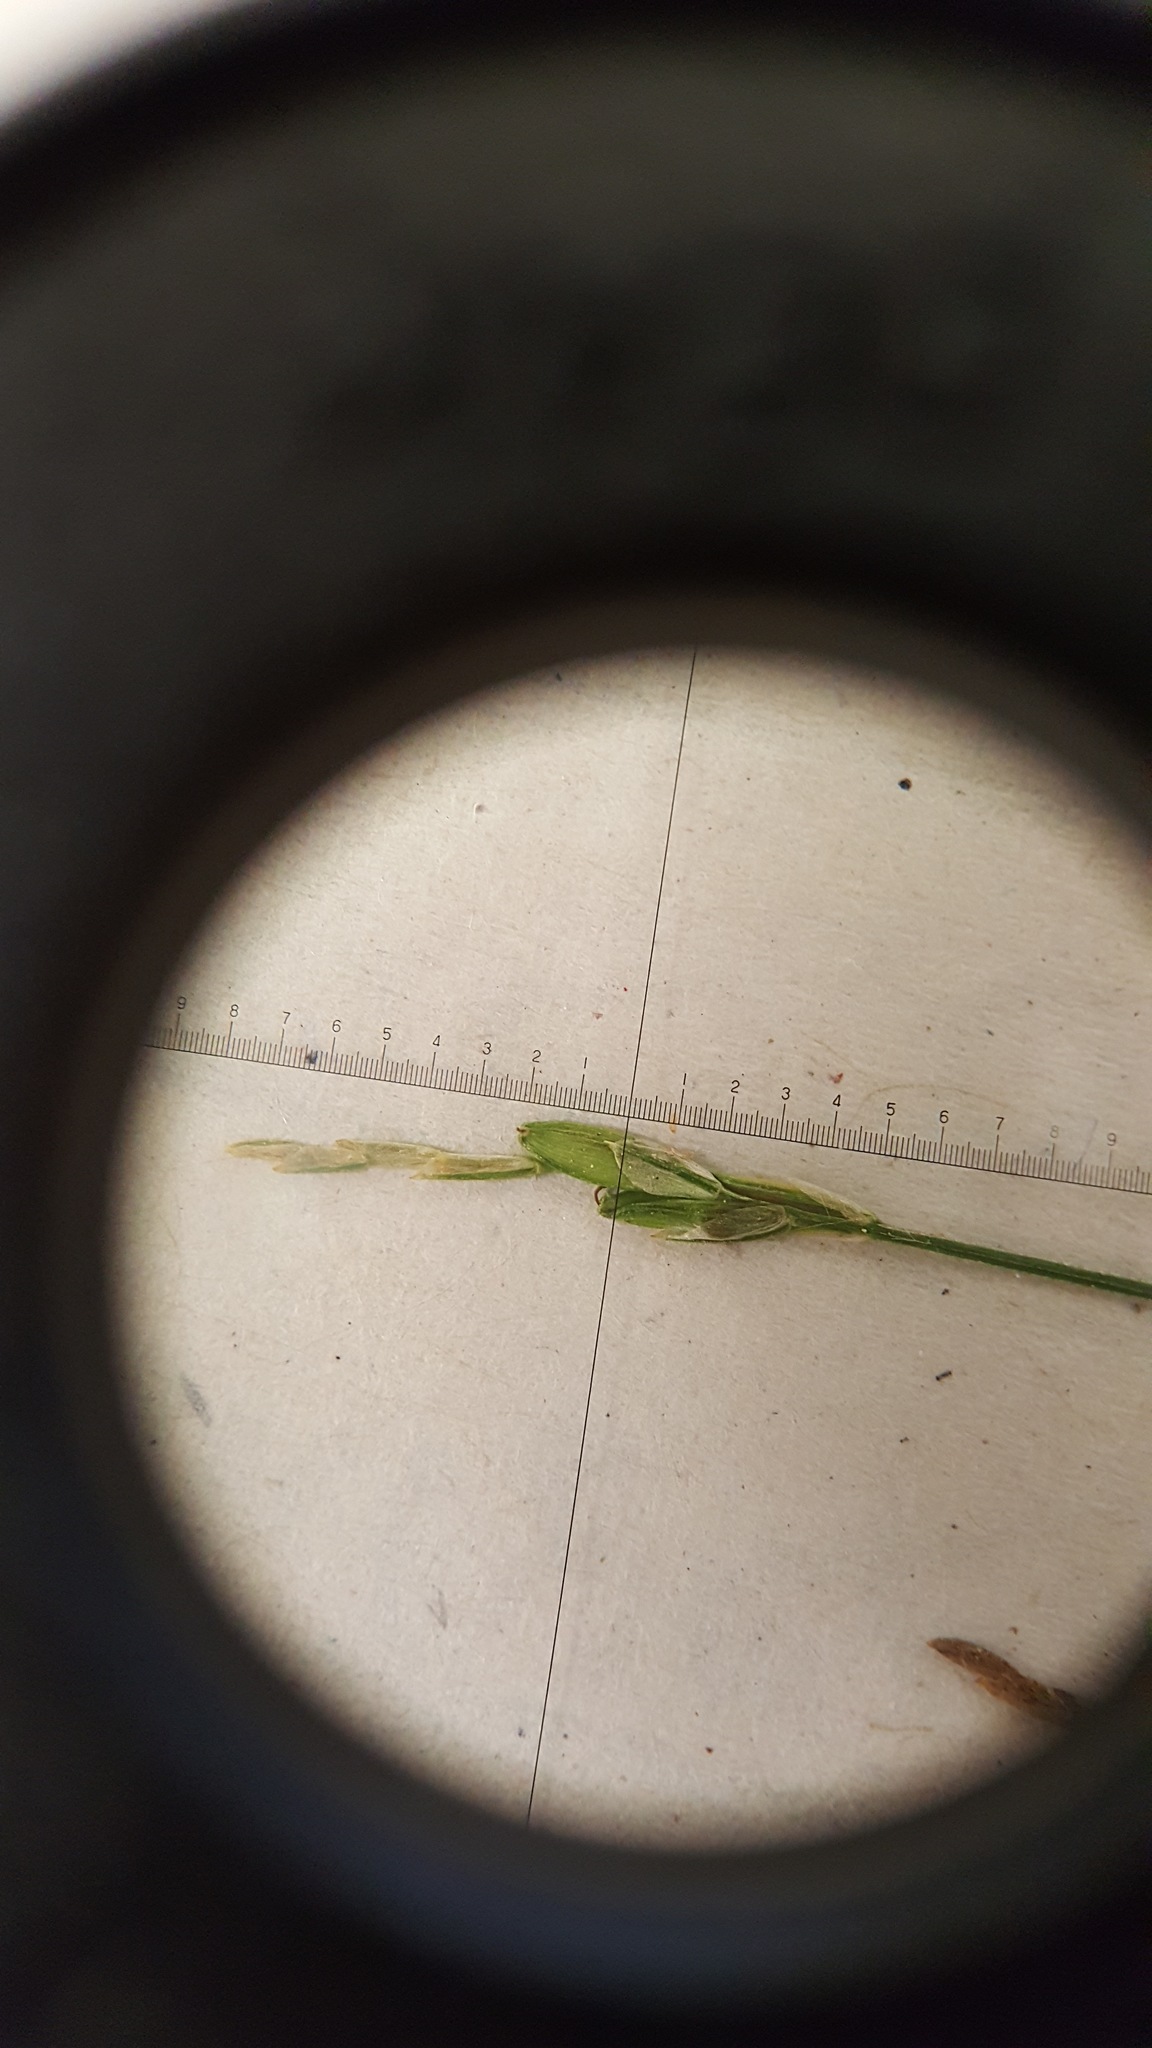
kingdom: Plantae
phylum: Tracheophyta
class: Liliopsida
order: Poales
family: Cyperaceae
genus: Carex
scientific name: Carex leptalea
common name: Bristly-stalked sedge
